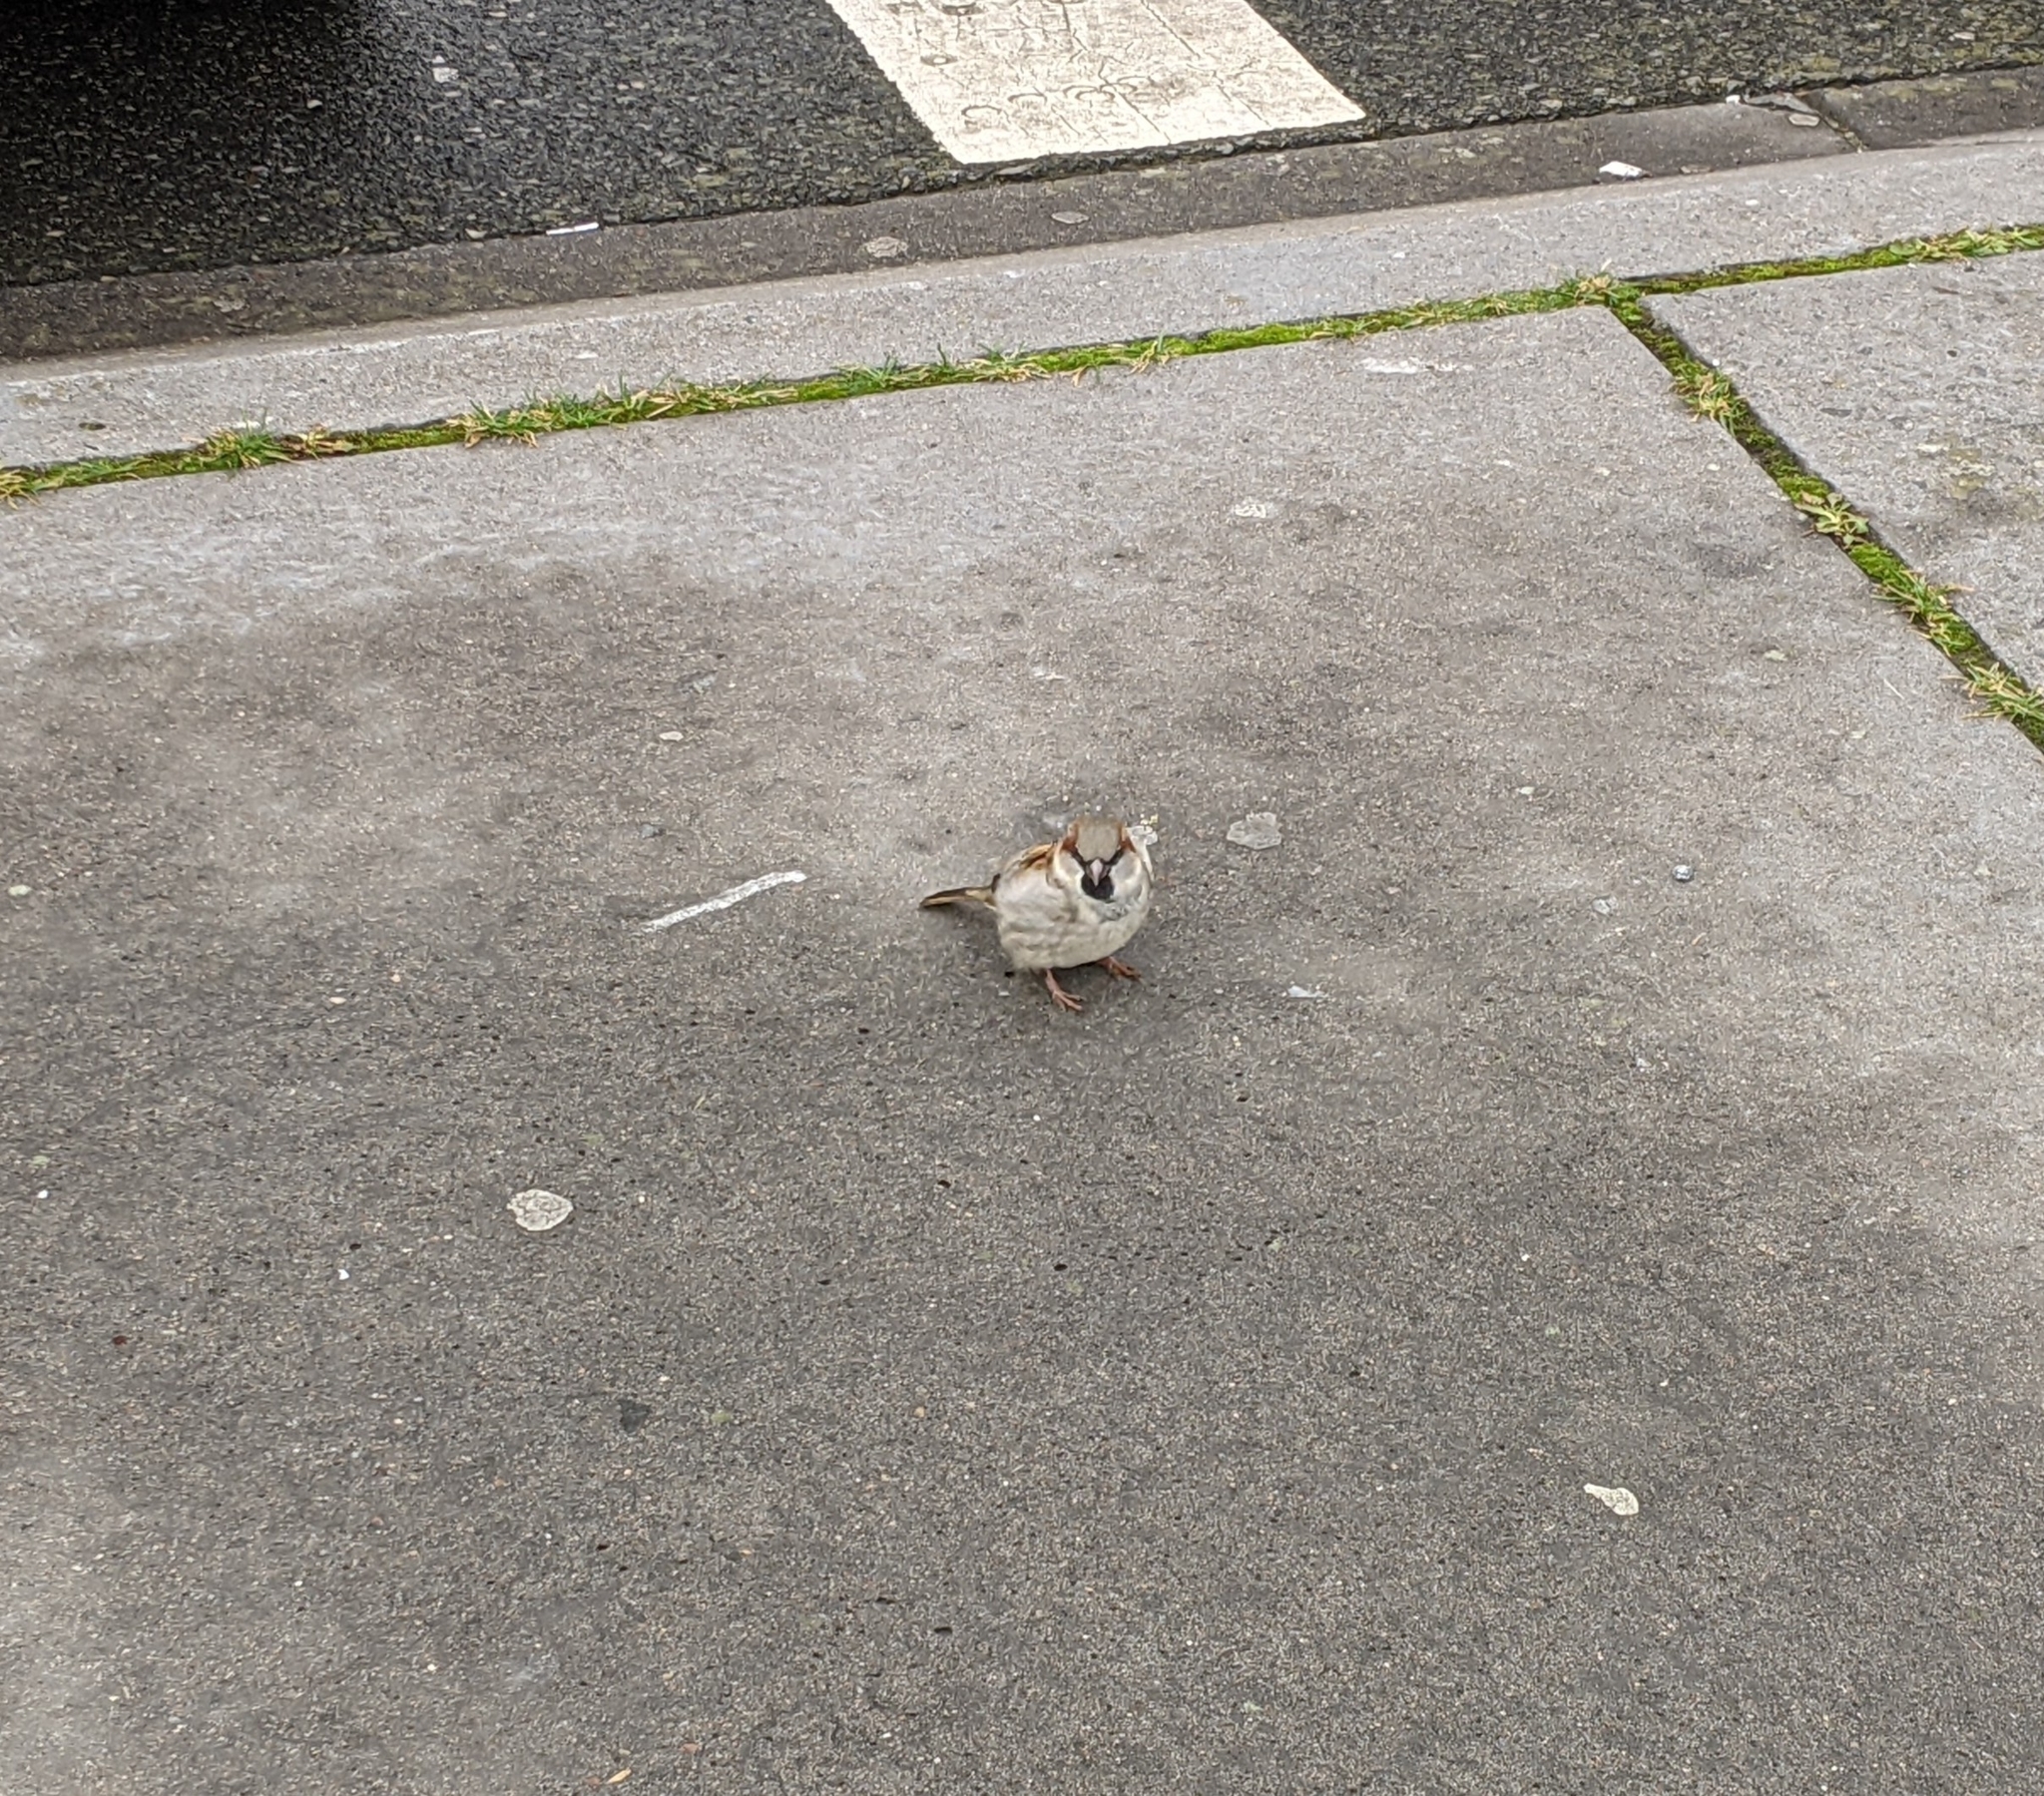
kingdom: Animalia
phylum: Chordata
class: Aves
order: Passeriformes
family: Passeridae
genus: Passer
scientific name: Passer domesticus
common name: House sparrow
